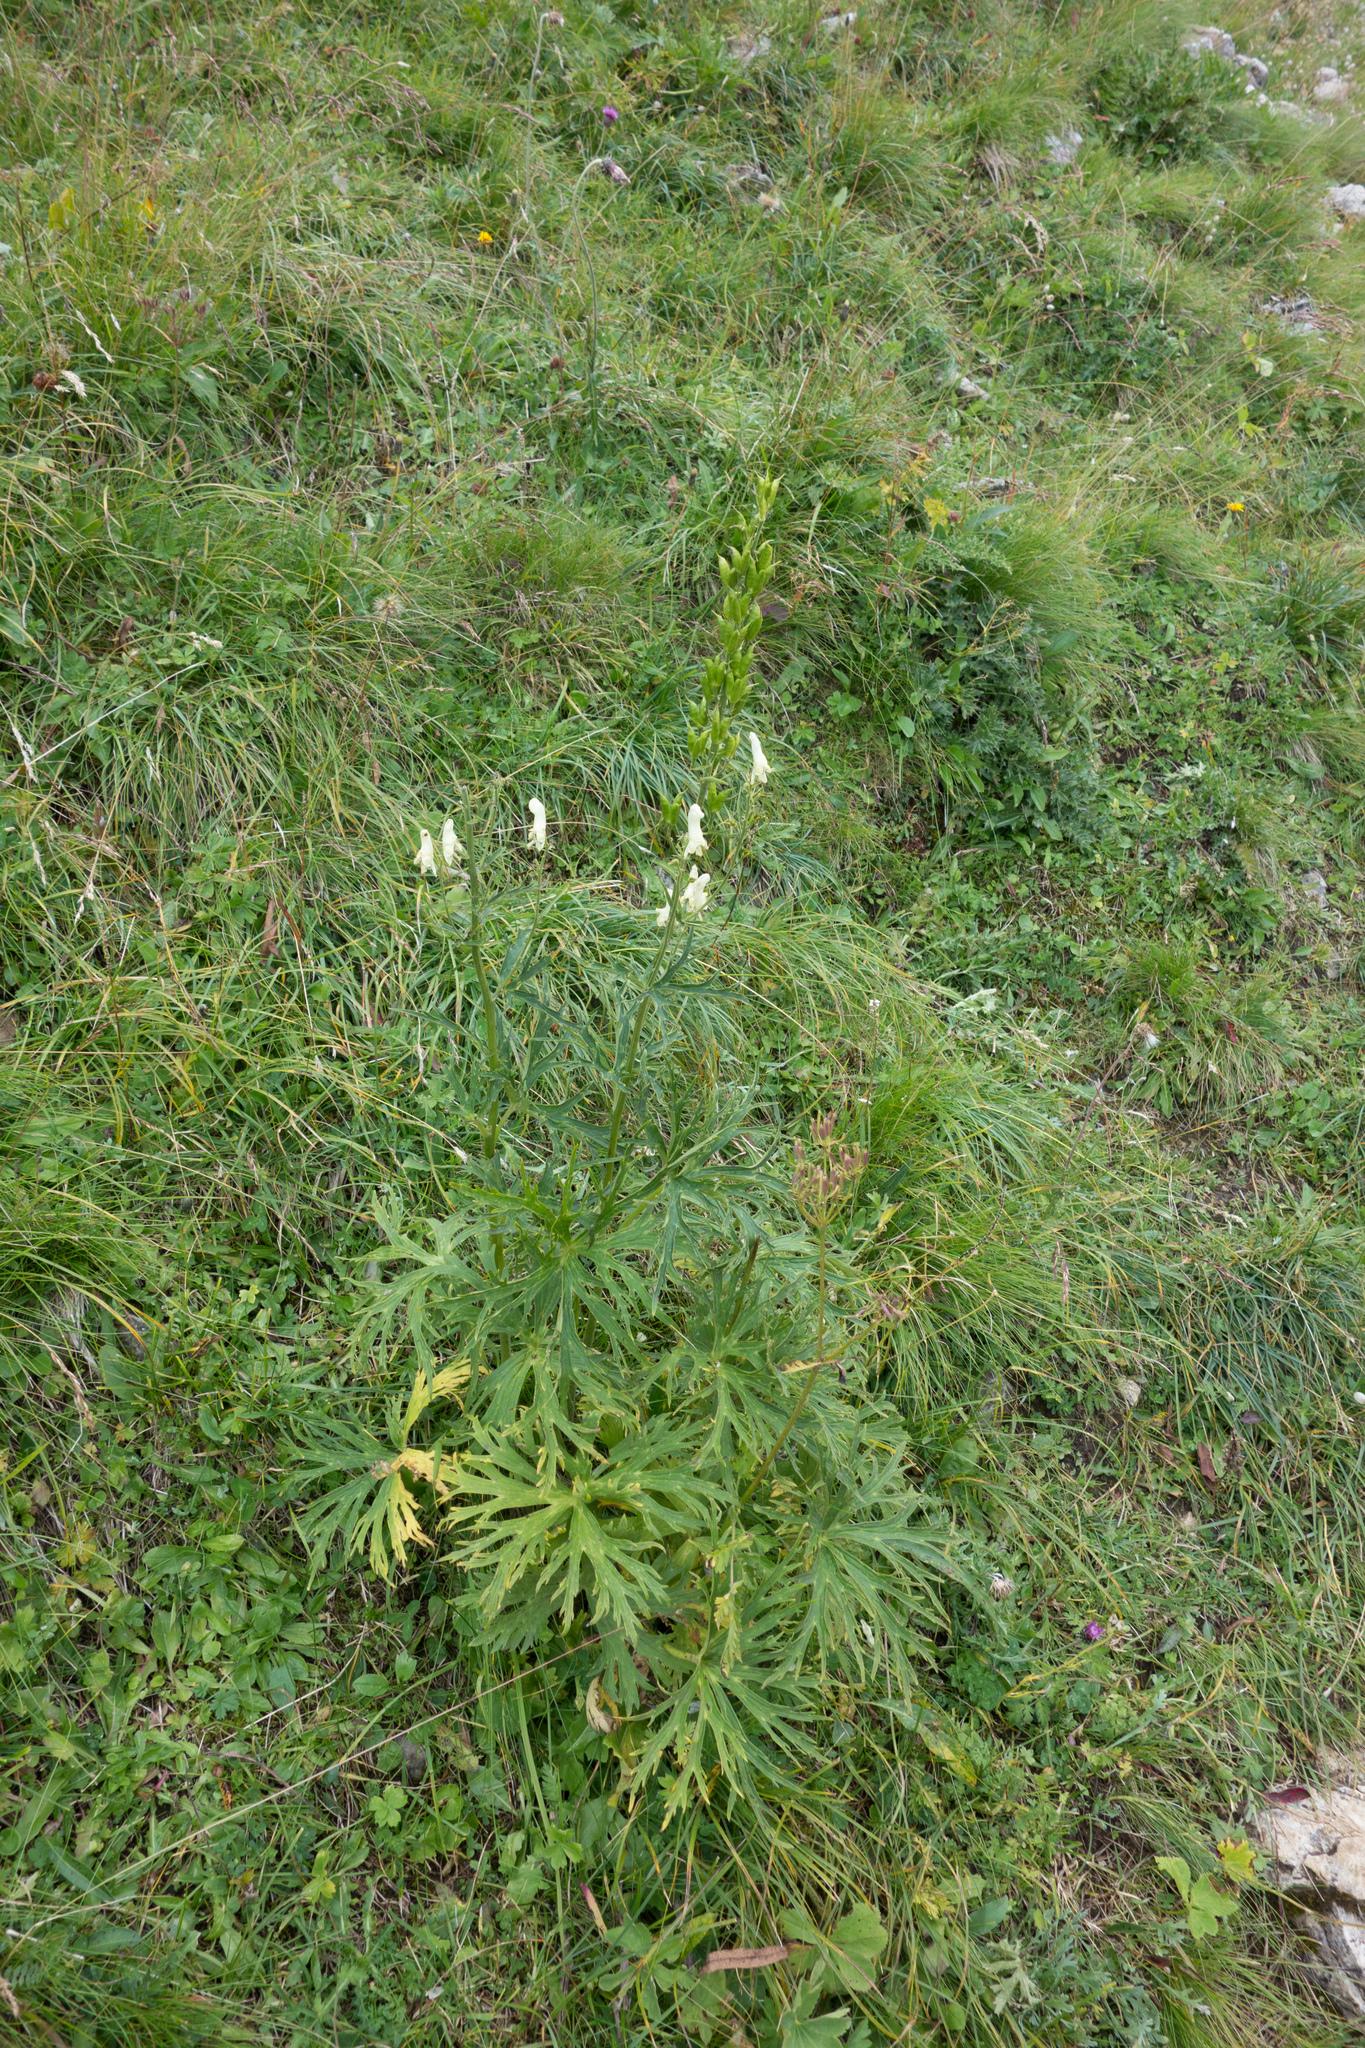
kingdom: Plantae
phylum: Tracheophyta
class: Magnoliopsida
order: Ranunculales
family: Ranunculaceae
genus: Aconitum
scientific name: Aconitum lycoctonum
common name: Wolf's-bane
